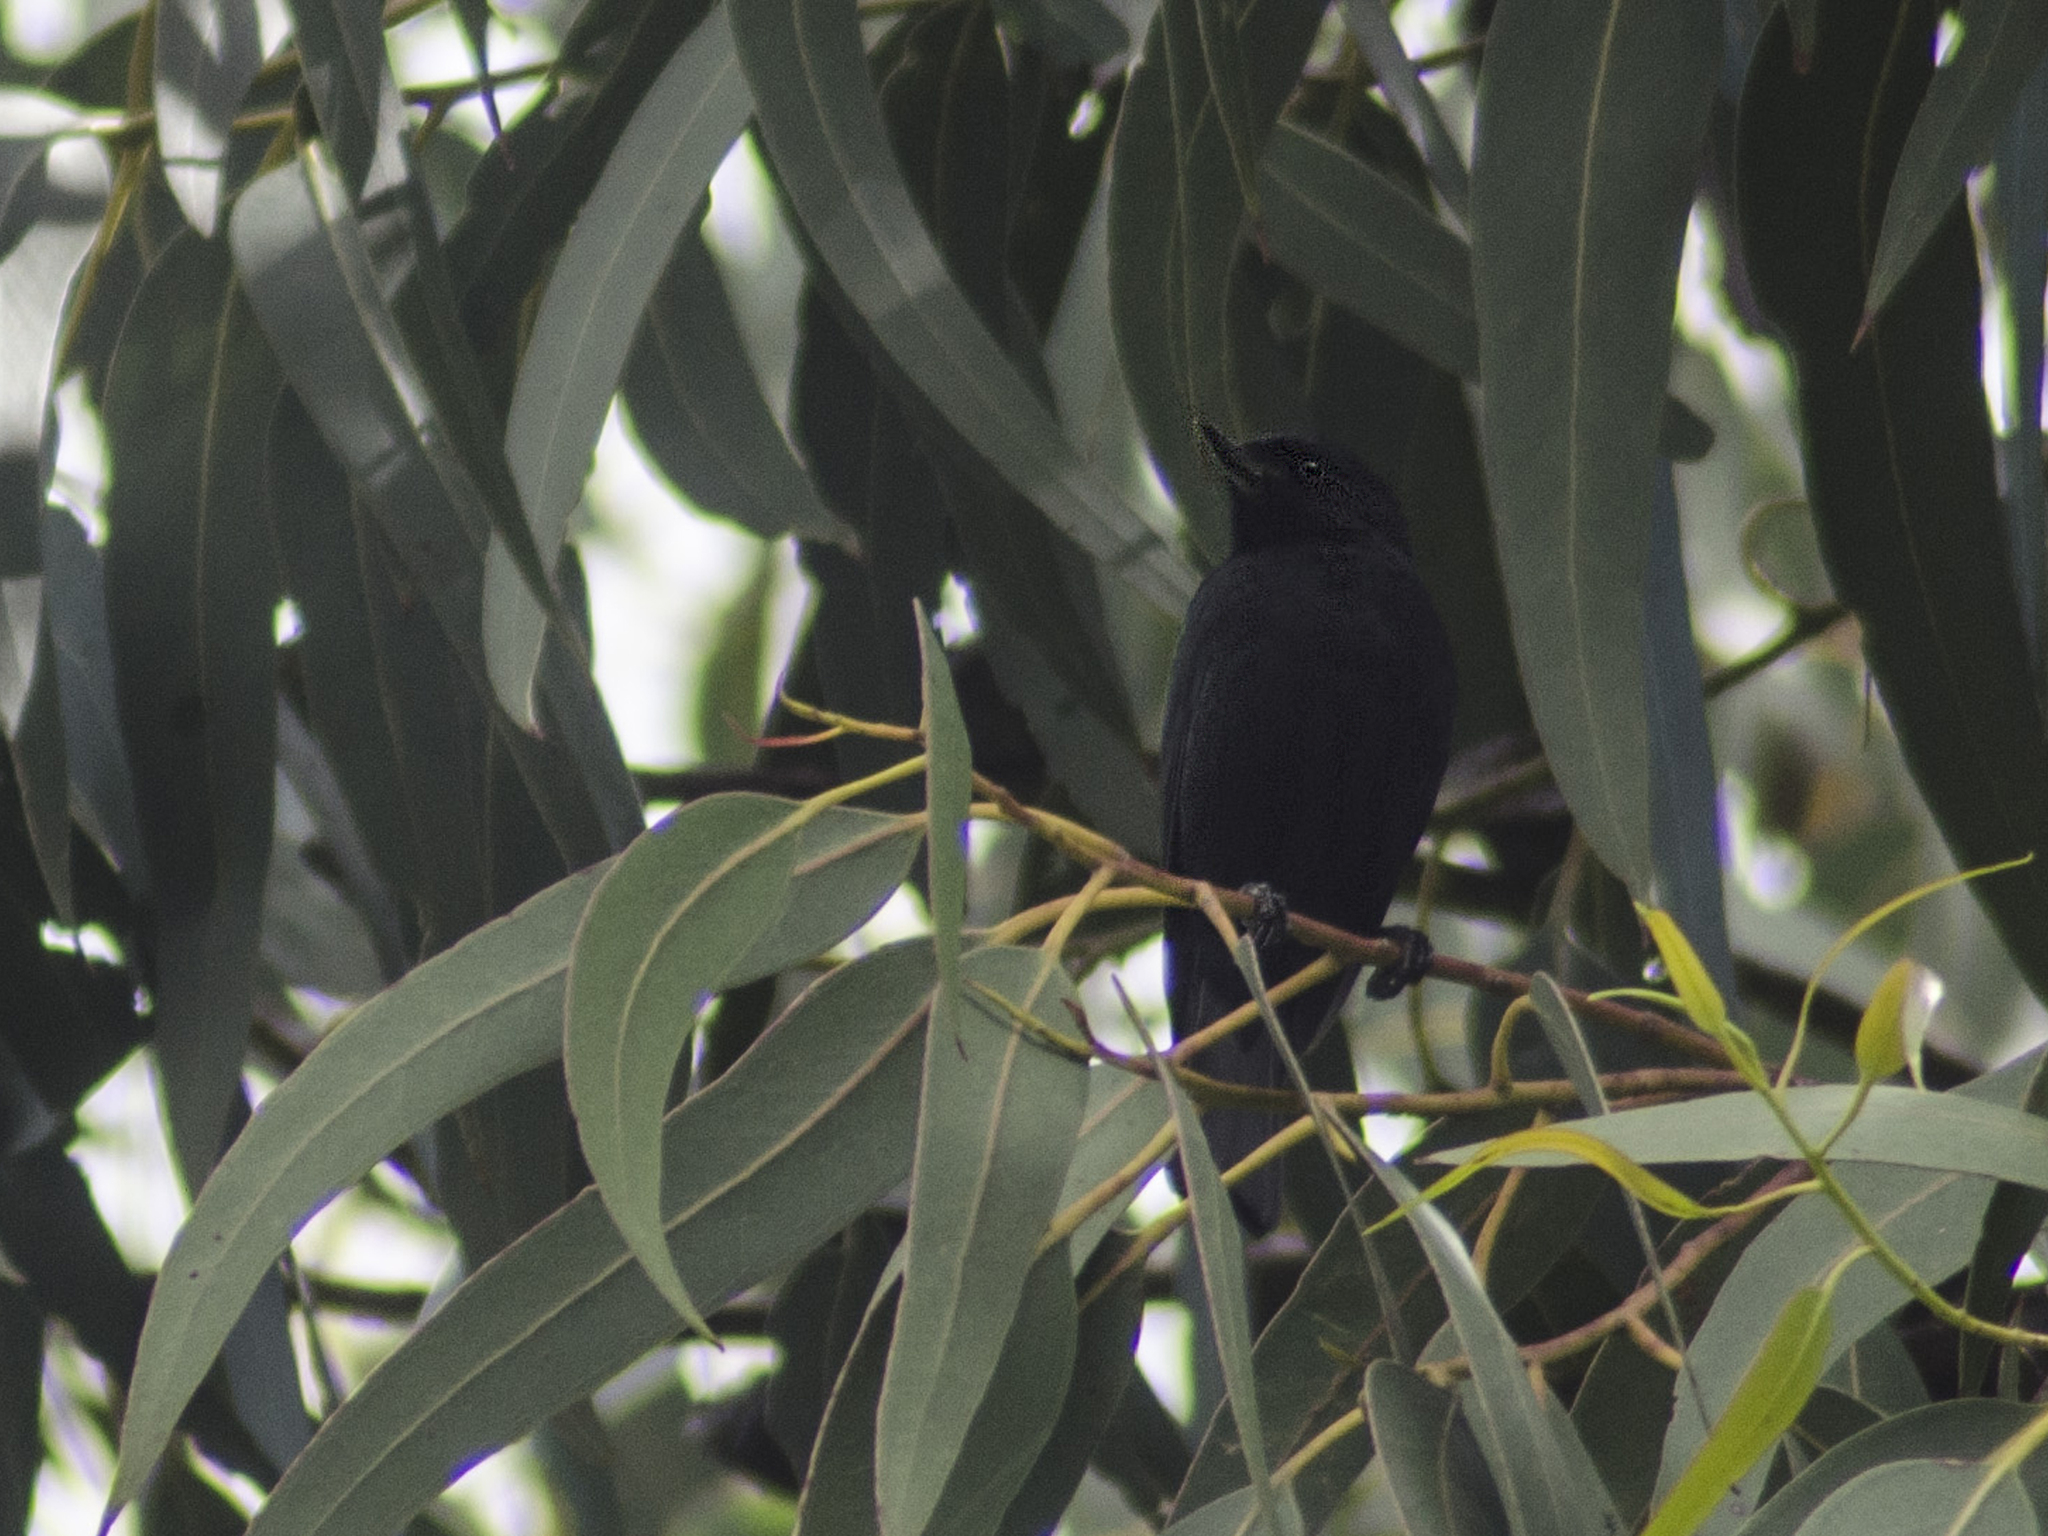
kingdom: Animalia
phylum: Chordata
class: Aves
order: Passeriformes
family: Thraupidae
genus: Diglossa
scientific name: Diglossa humeralis
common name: Black flowerpiercer
